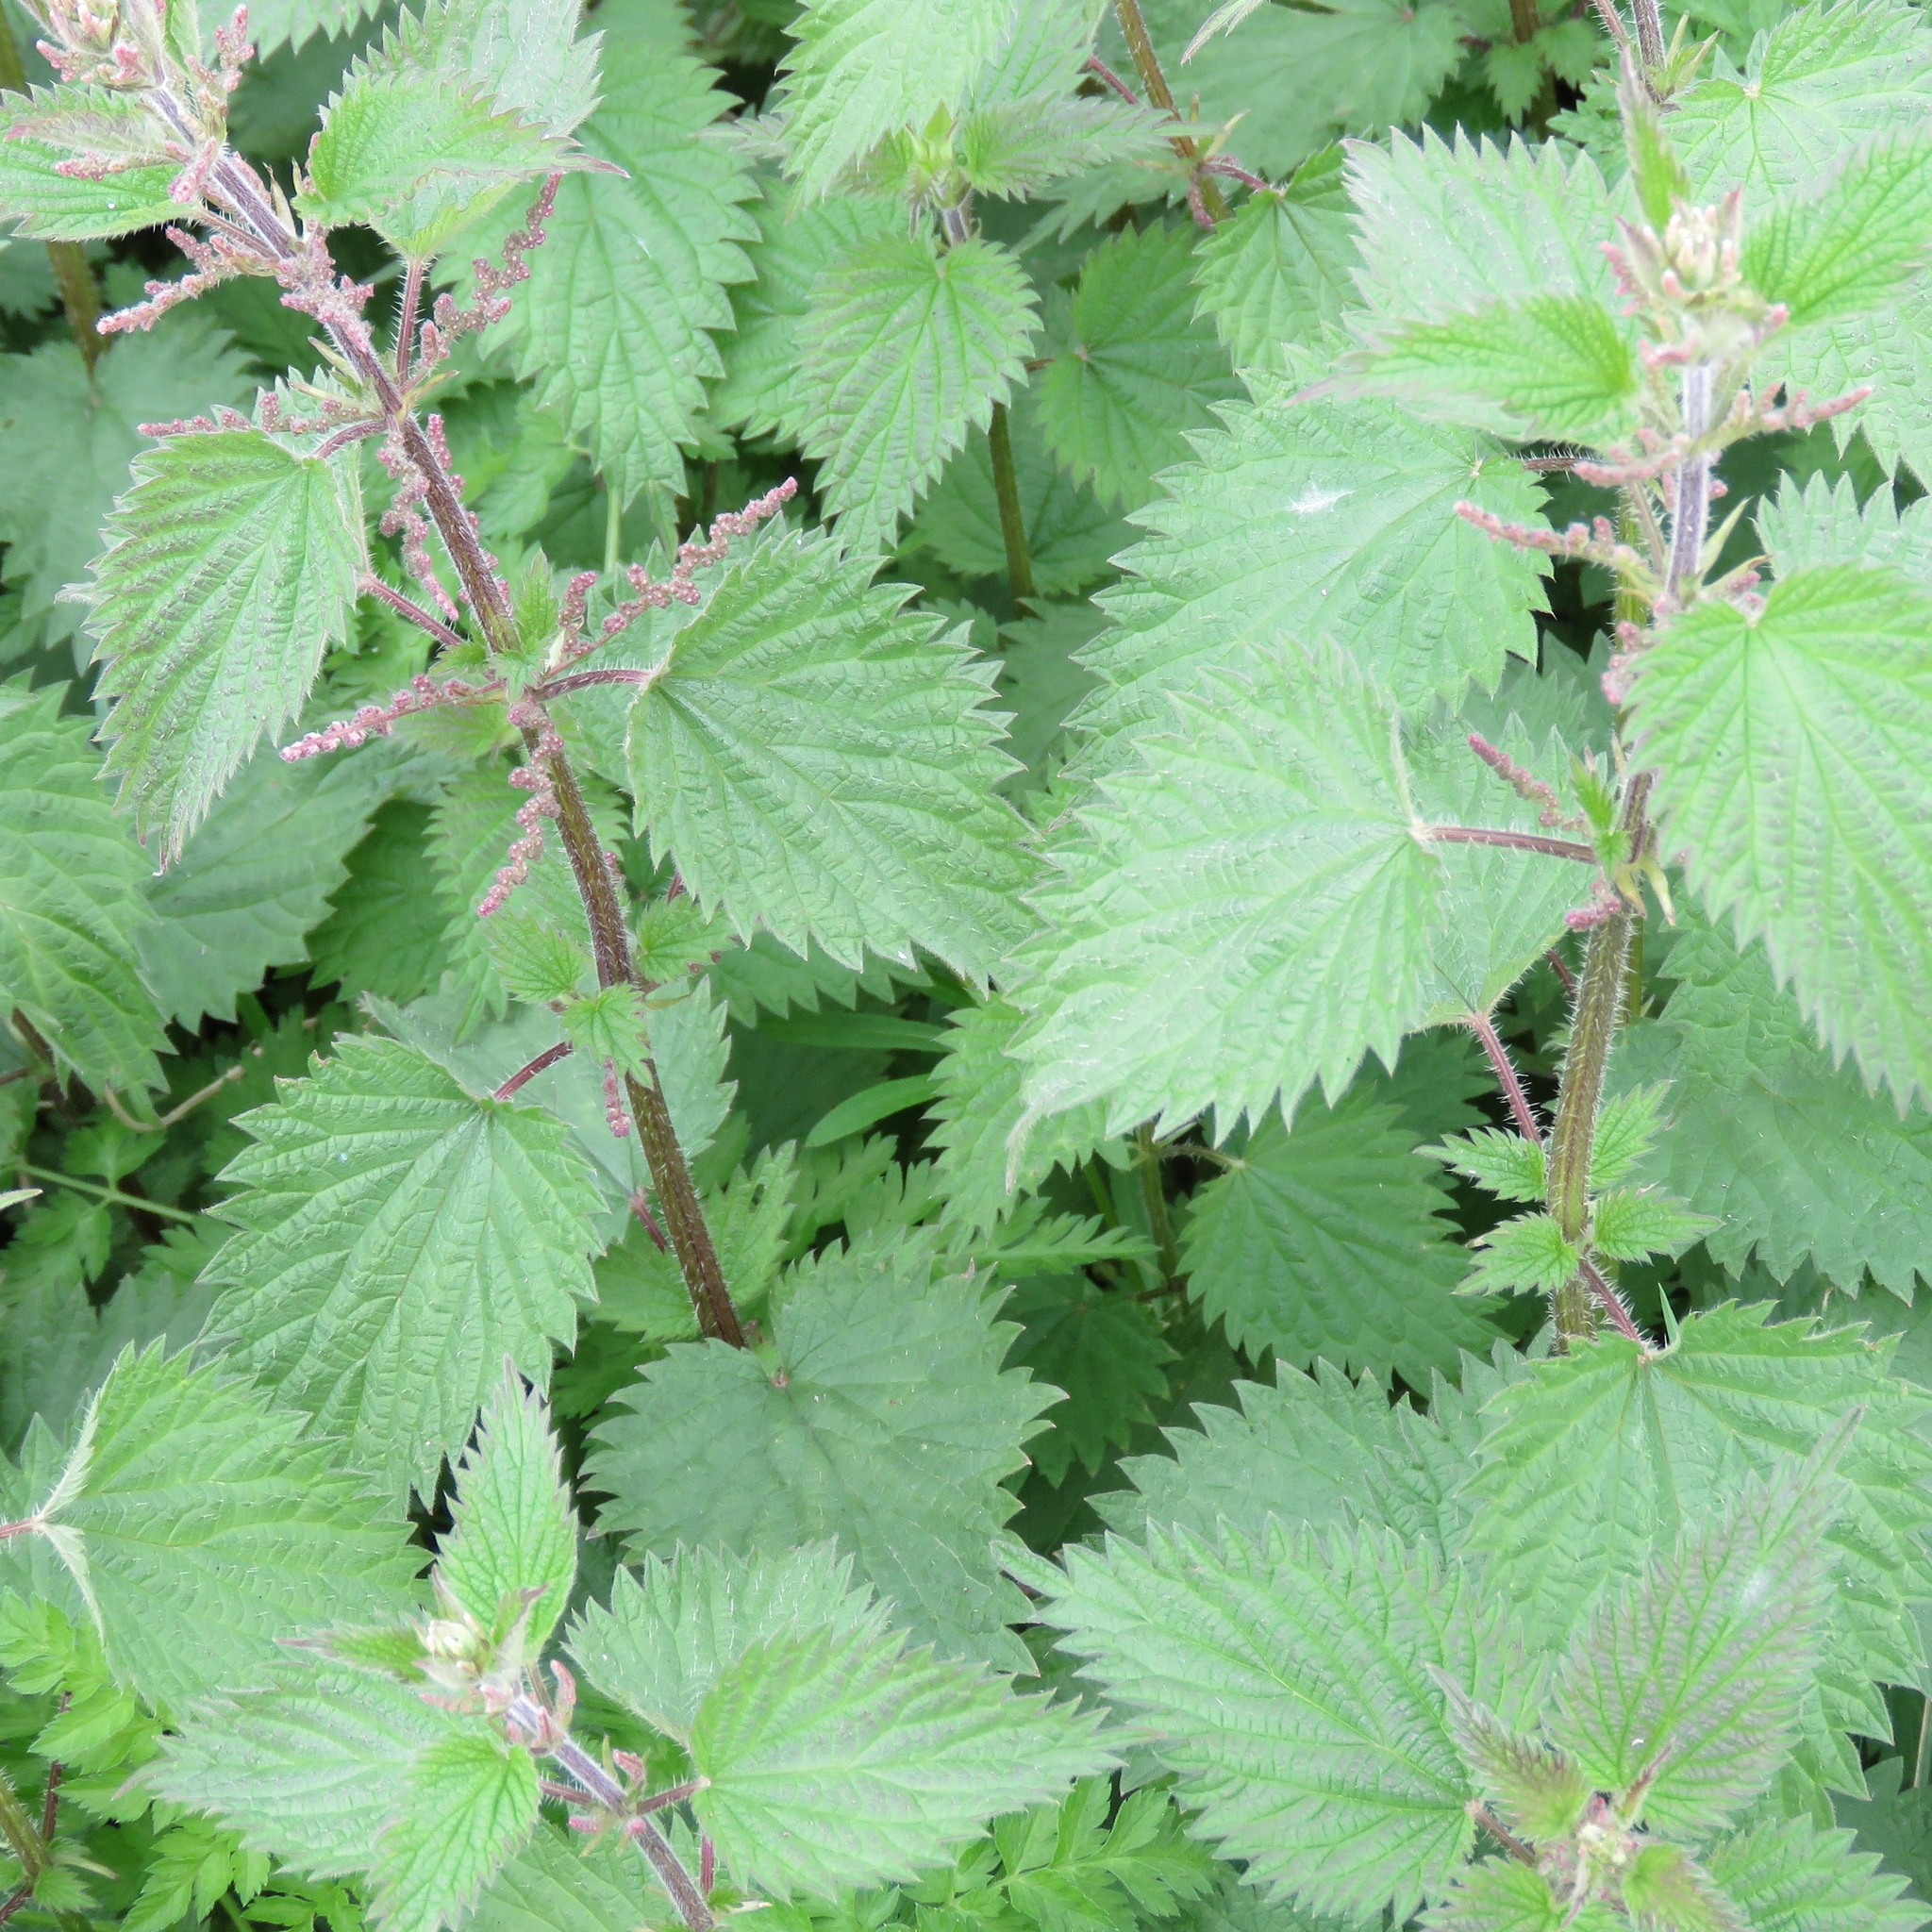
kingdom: Plantae
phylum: Tracheophyta
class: Magnoliopsida
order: Rosales
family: Urticaceae
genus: Urtica
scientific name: Urtica dioica
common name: Common nettle
